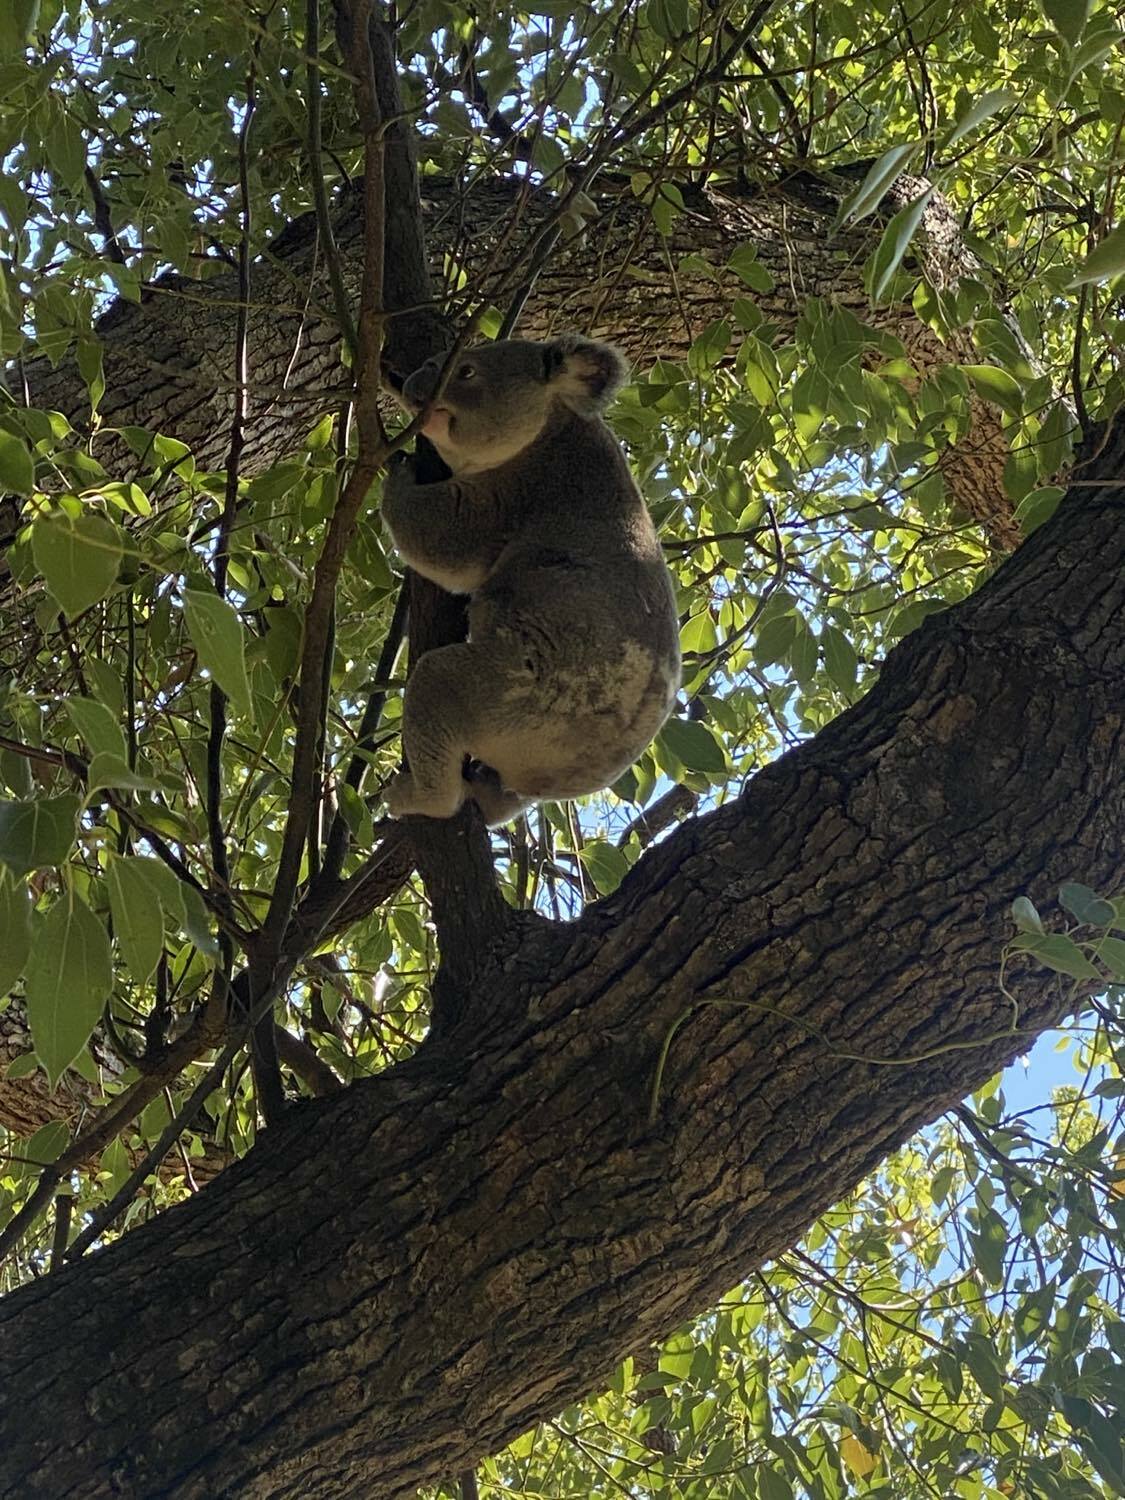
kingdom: Animalia
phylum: Chordata
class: Mammalia
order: Diprotodontia
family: Phascolarctidae
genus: Phascolarctos
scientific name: Phascolarctos cinereus
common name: Koala
